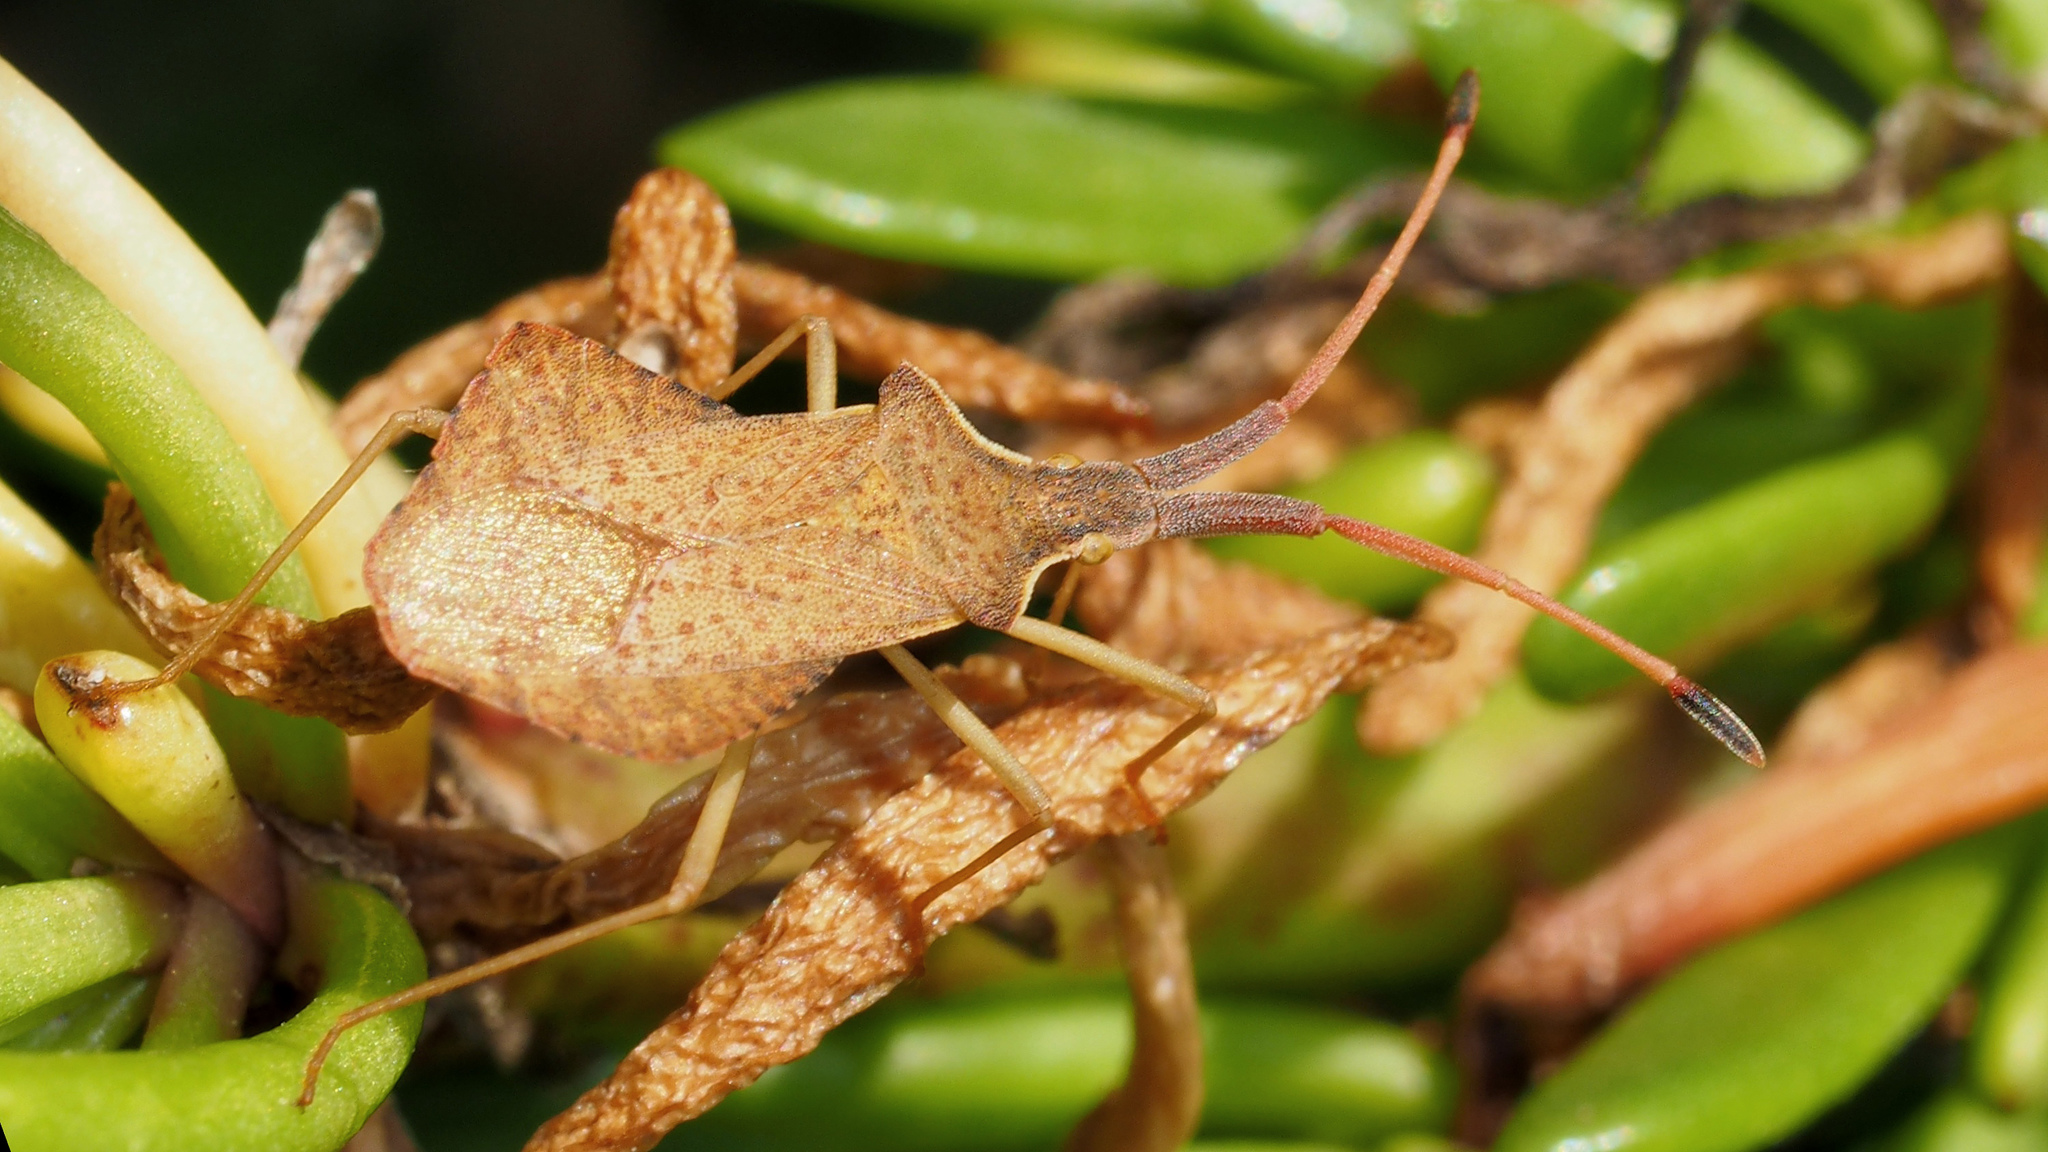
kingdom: Animalia
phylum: Arthropoda
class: Insecta
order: Hemiptera
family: Coreidae
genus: Syromastus
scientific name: Syromastus rhombeus
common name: Rhombic leatherbug
